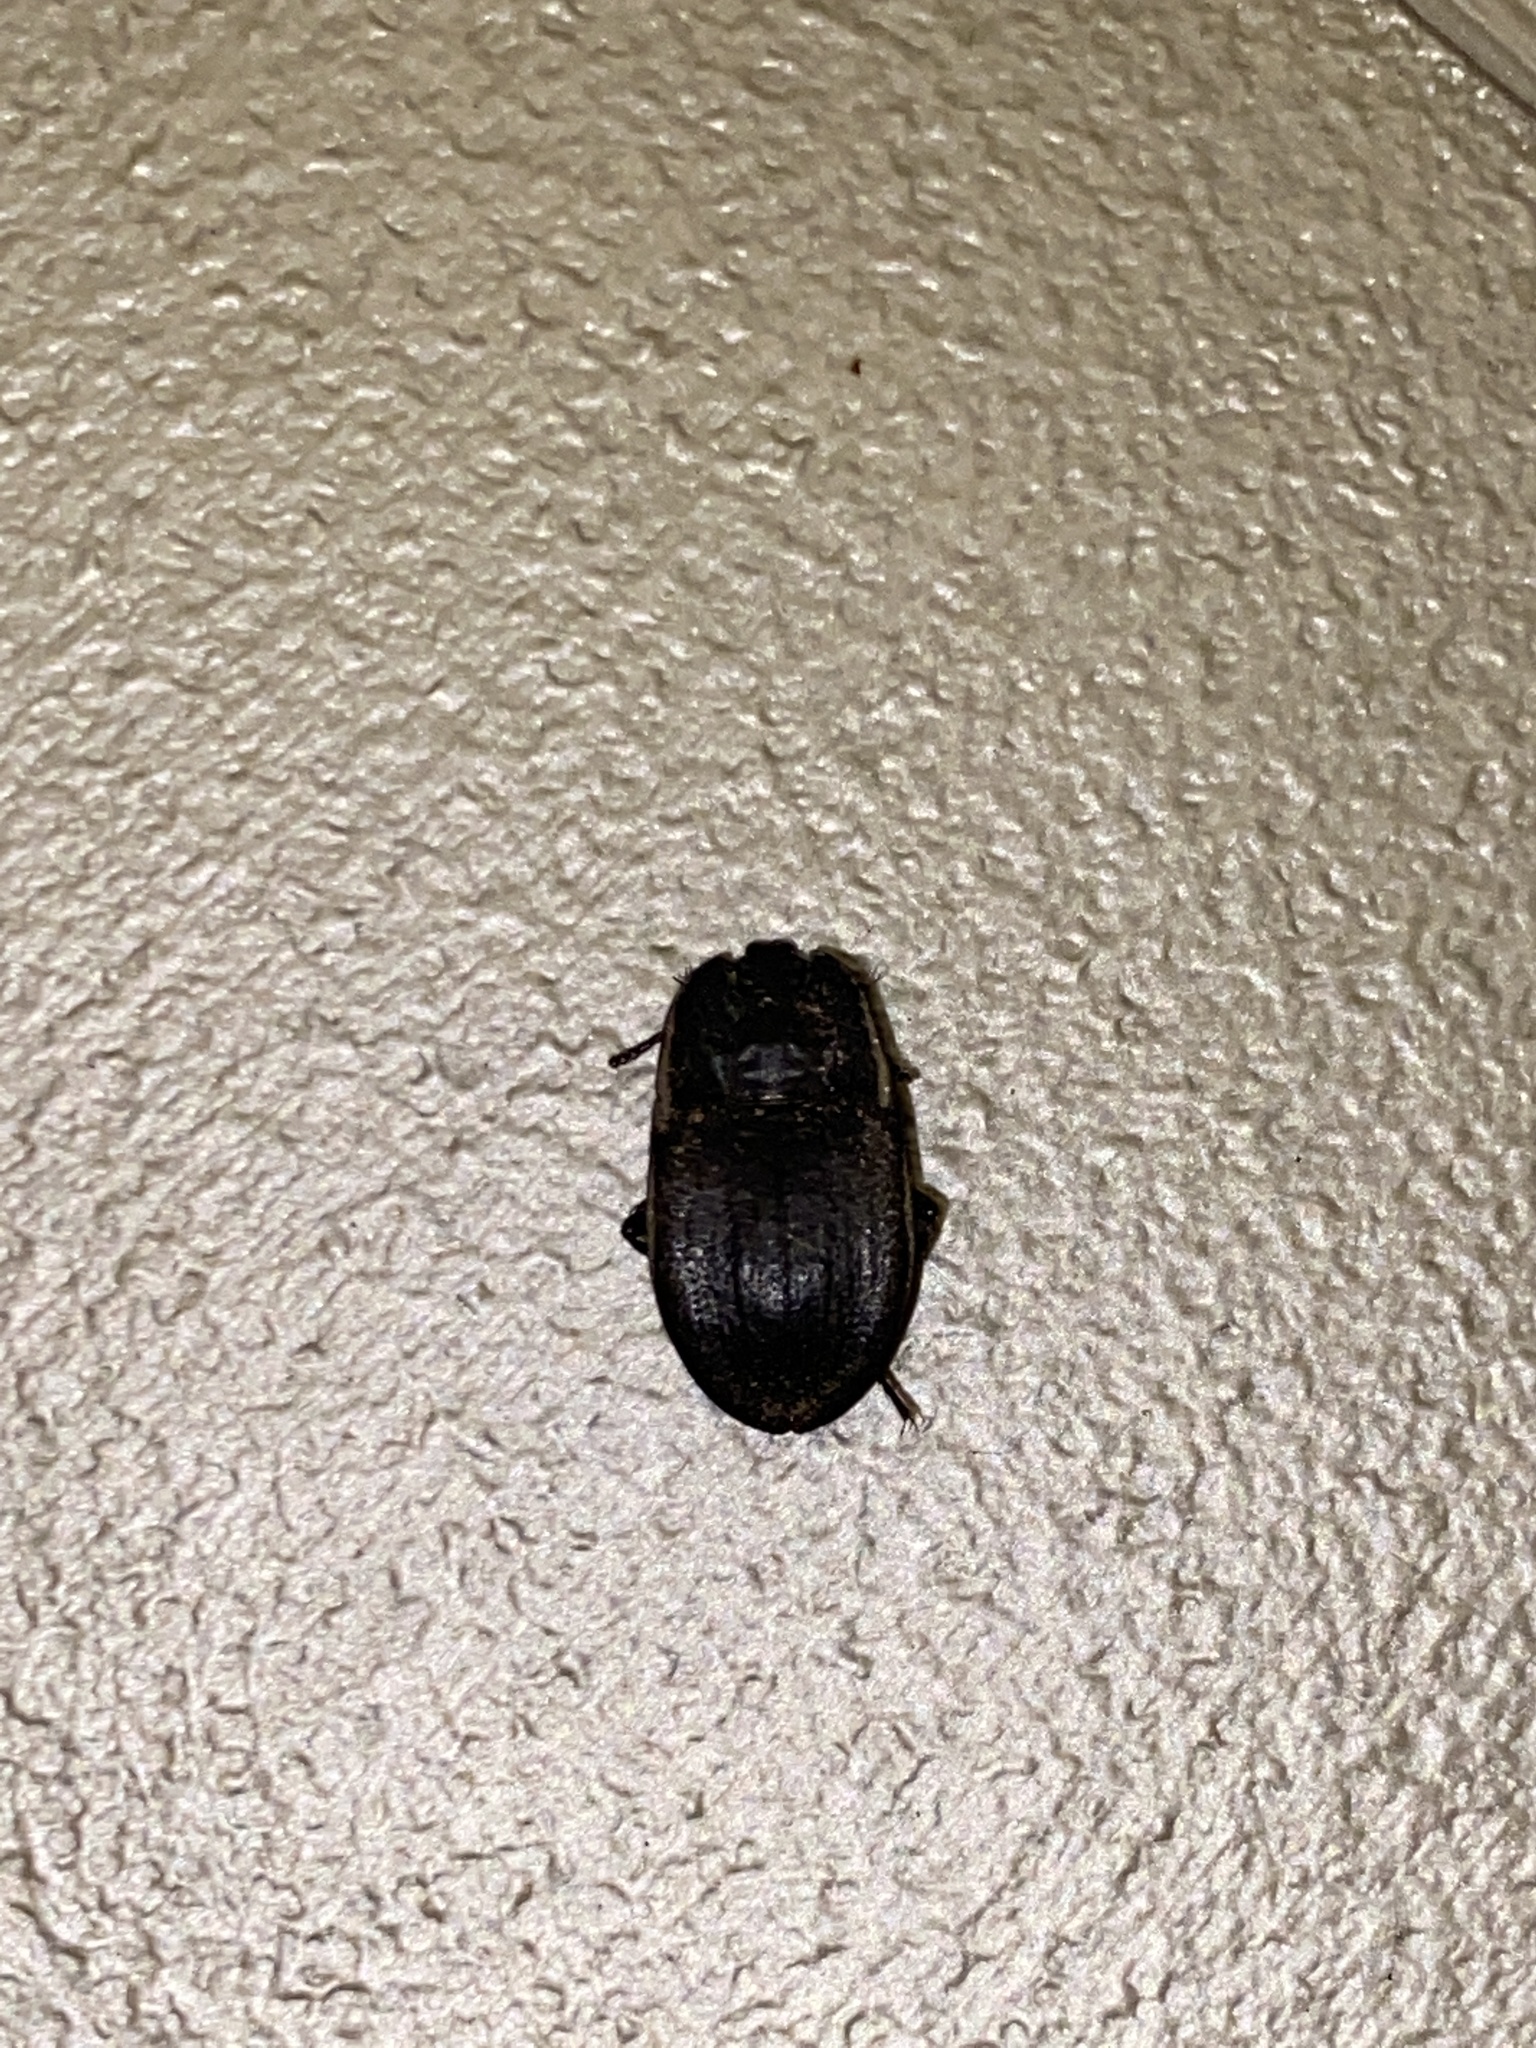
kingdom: Animalia
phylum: Arthropoda
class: Insecta
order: Coleoptera
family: Tenebrionidae
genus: Embaphion
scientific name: Embaphion muricatum
